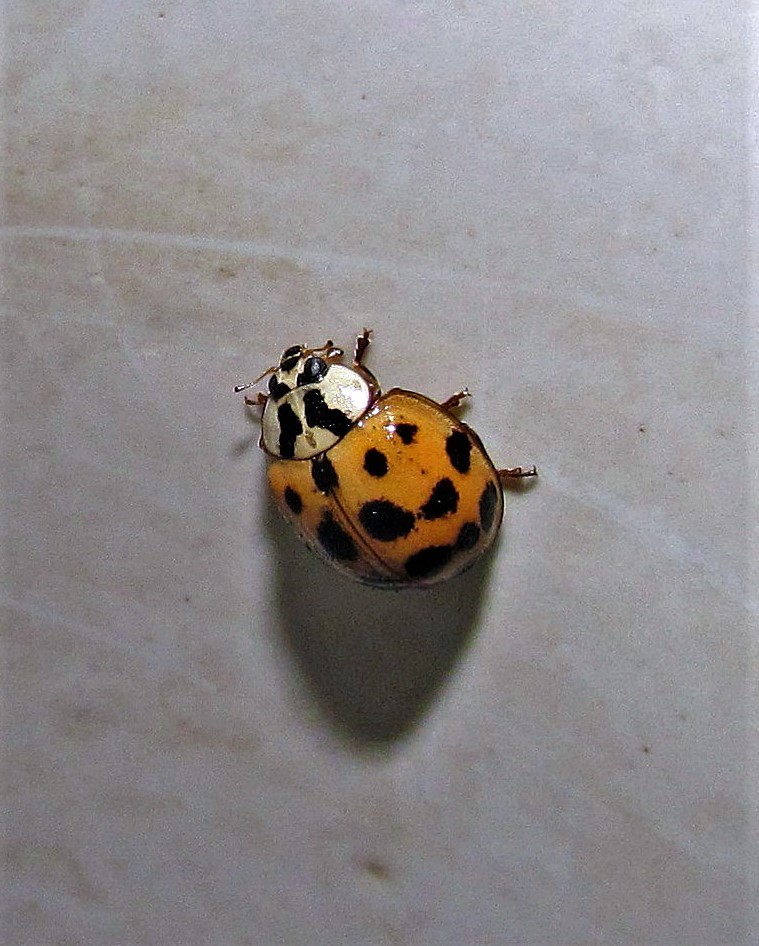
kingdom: Animalia
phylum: Arthropoda
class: Insecta
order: Coleoptera
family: Coccinellidae
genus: Harmonia
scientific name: Harmonia axyridis
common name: Harlequin ladybird
